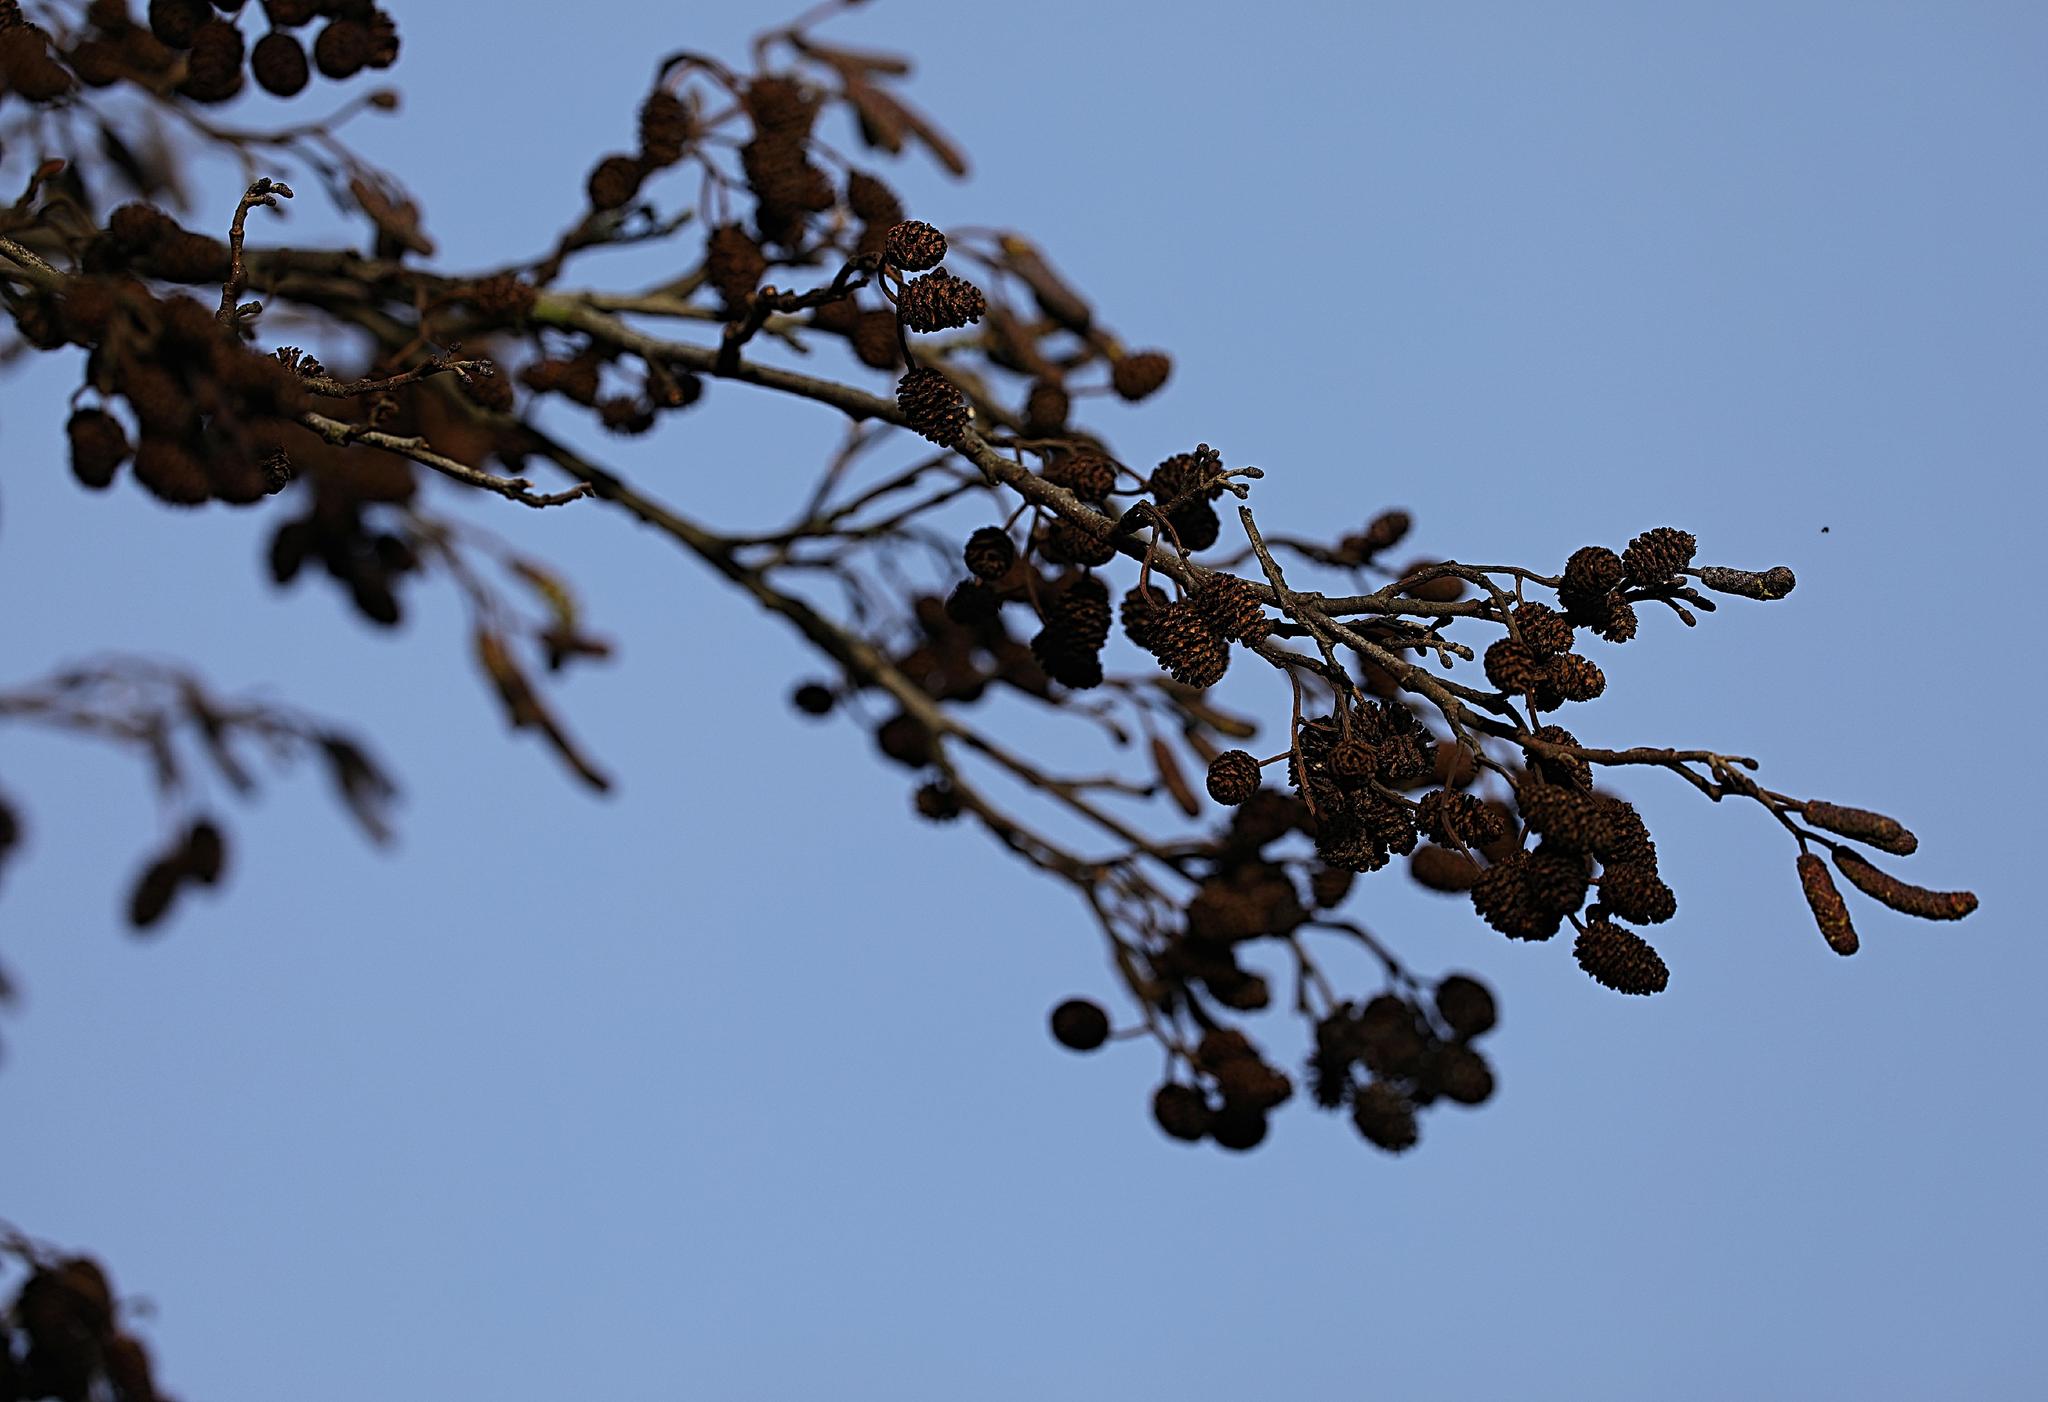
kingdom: Plantae
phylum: Tracheophyta
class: Magnoliopsida
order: Fagales
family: Betulaceae
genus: Alnus
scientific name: Alnus glutinosa
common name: Black alder
